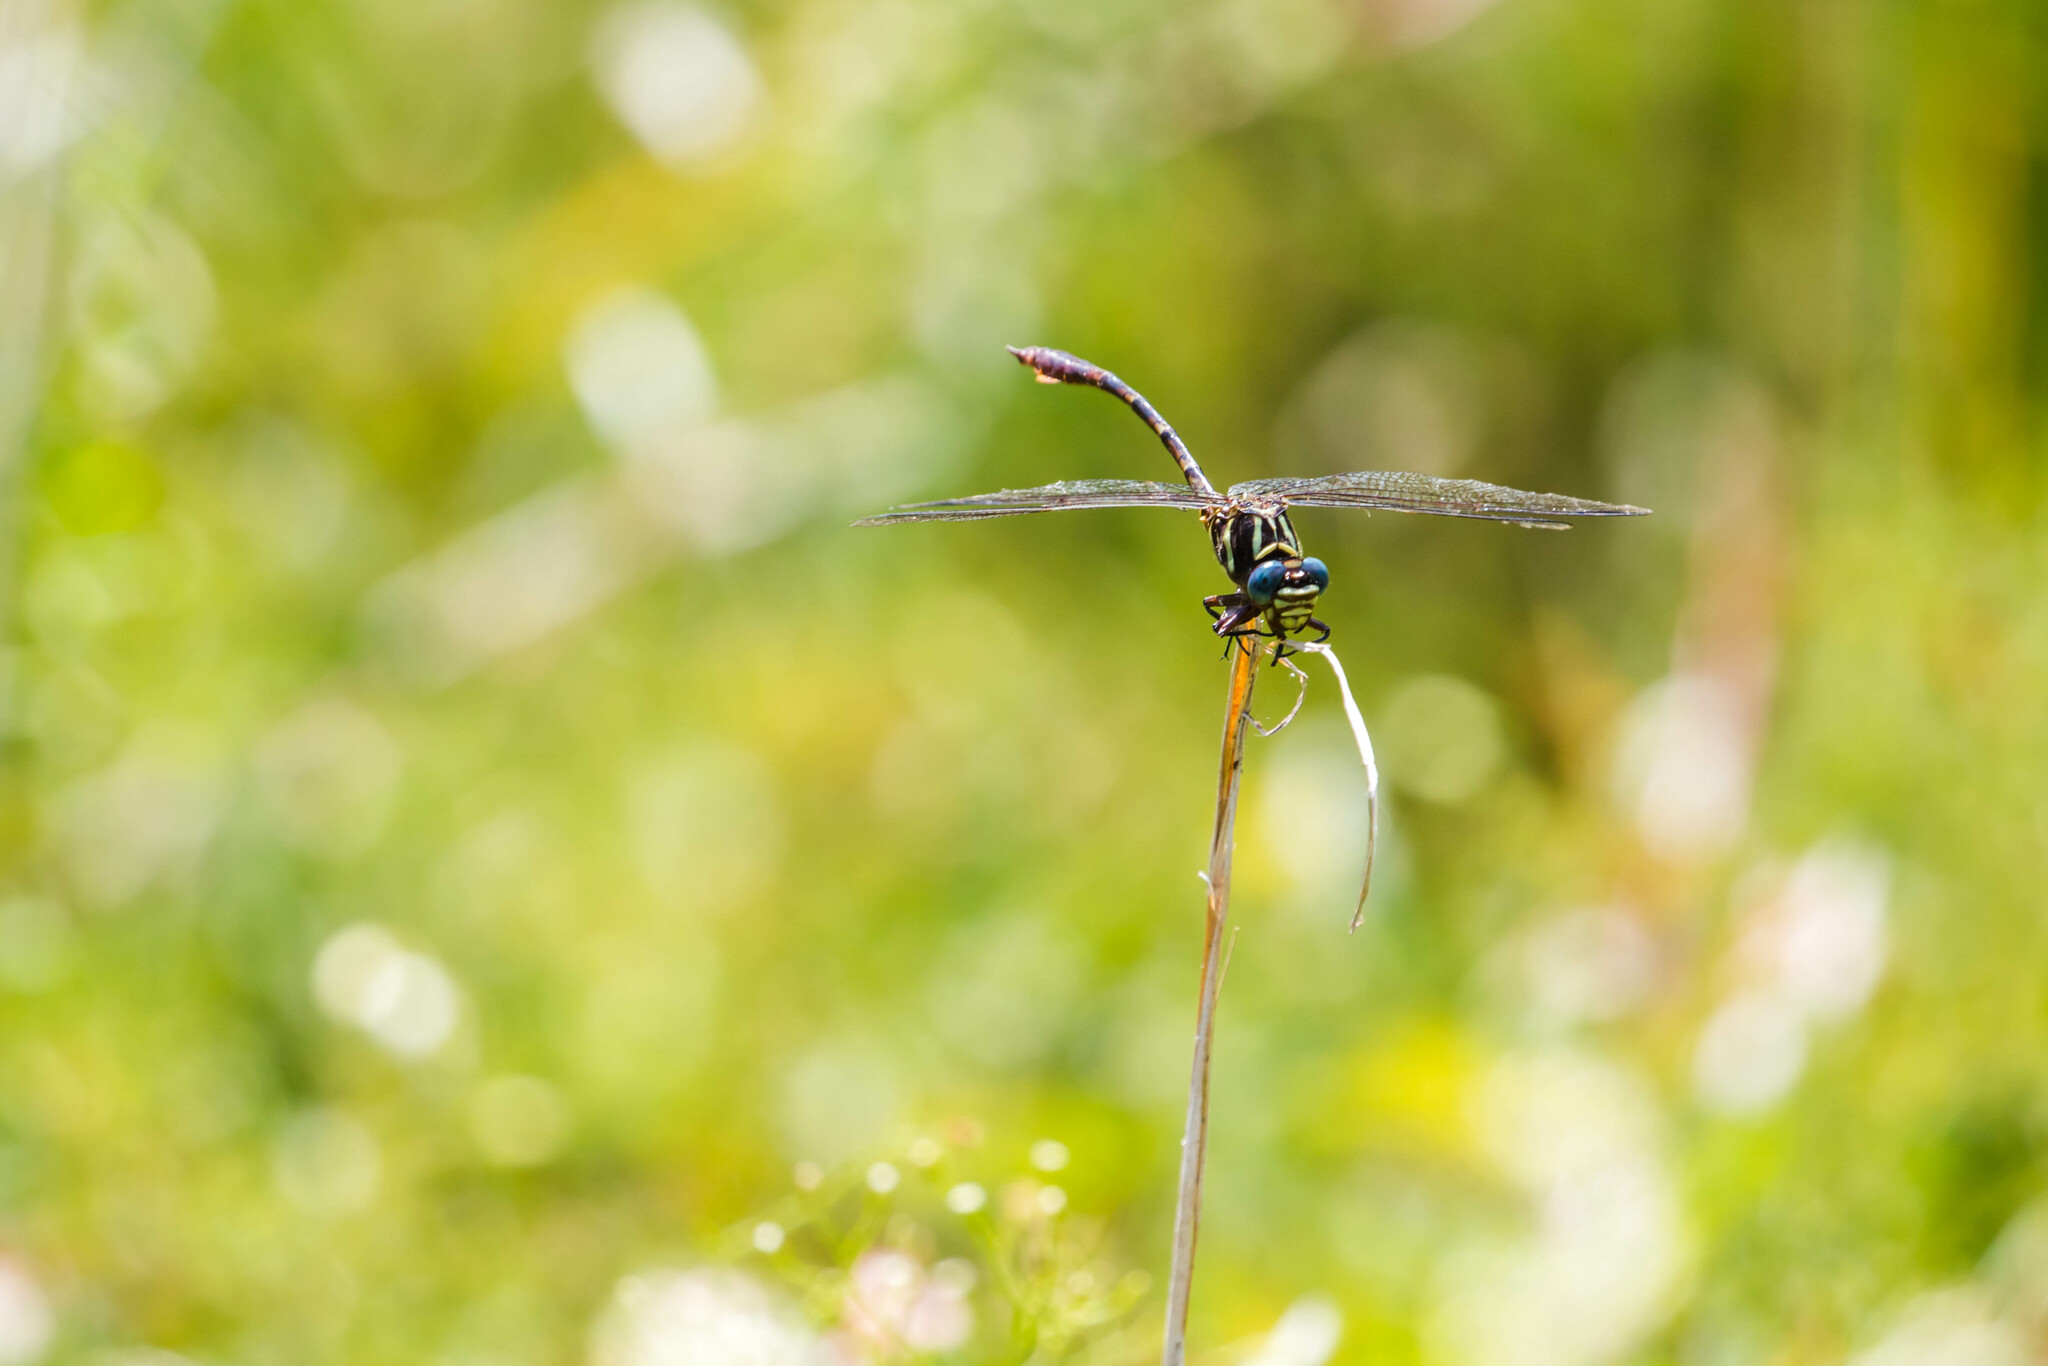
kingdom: Animalia
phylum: Arthropoda
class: Insecta
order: Odonata
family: Gomphidae
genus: Aphylla
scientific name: Aphylla williamsoni
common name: Two-striped forceptail
